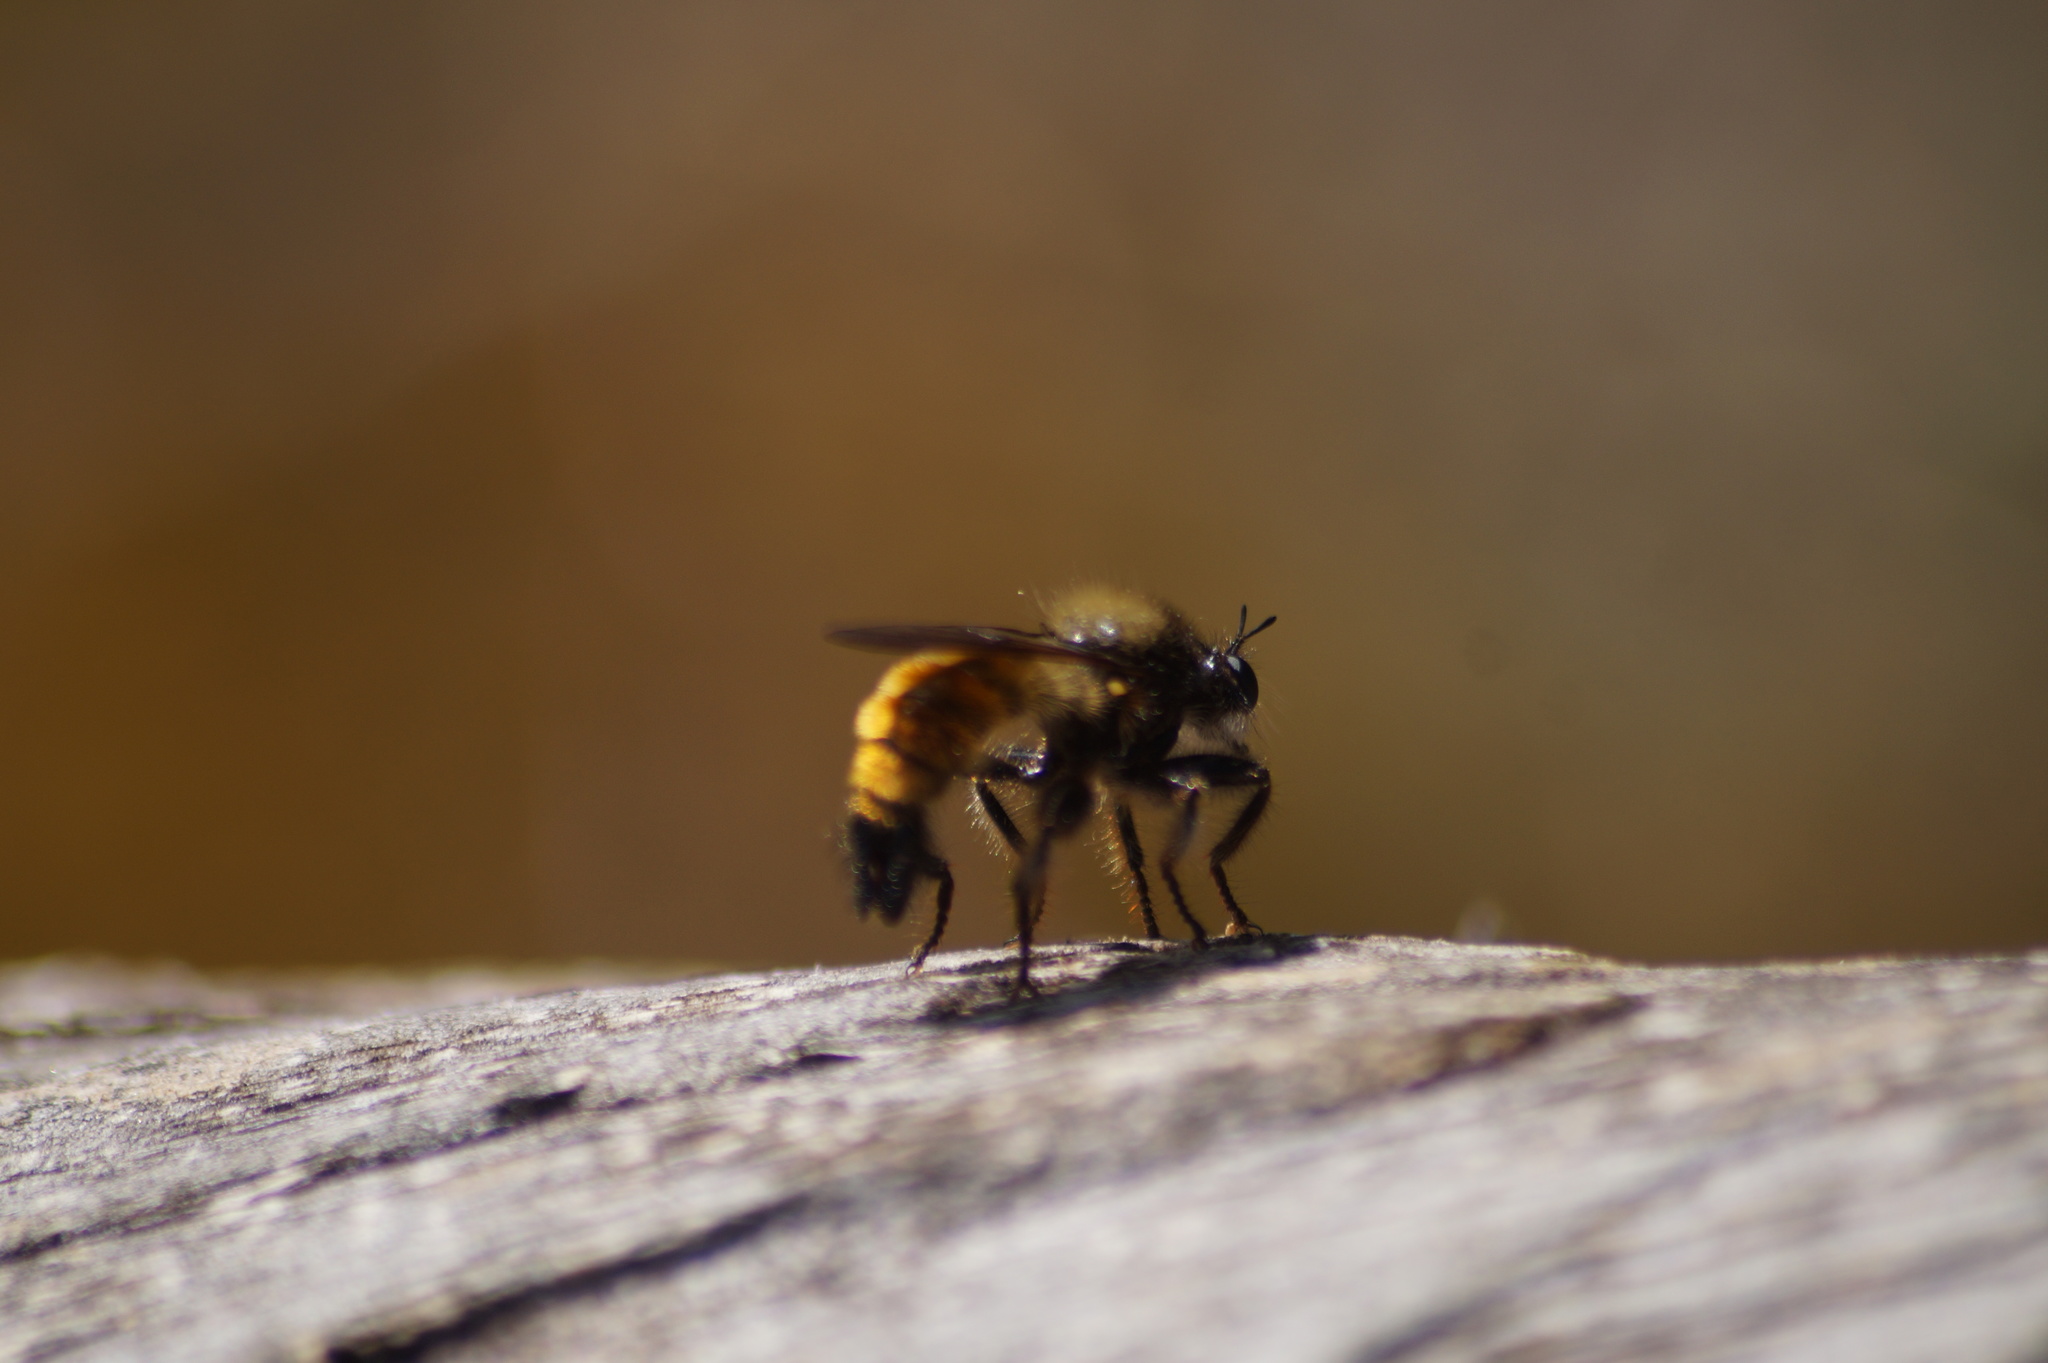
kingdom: Animalia
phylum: Arthropoda
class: Insecta
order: Diptera
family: Asilidae
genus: Laphria
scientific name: Laphria flava
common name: Bumblebee robberfly
